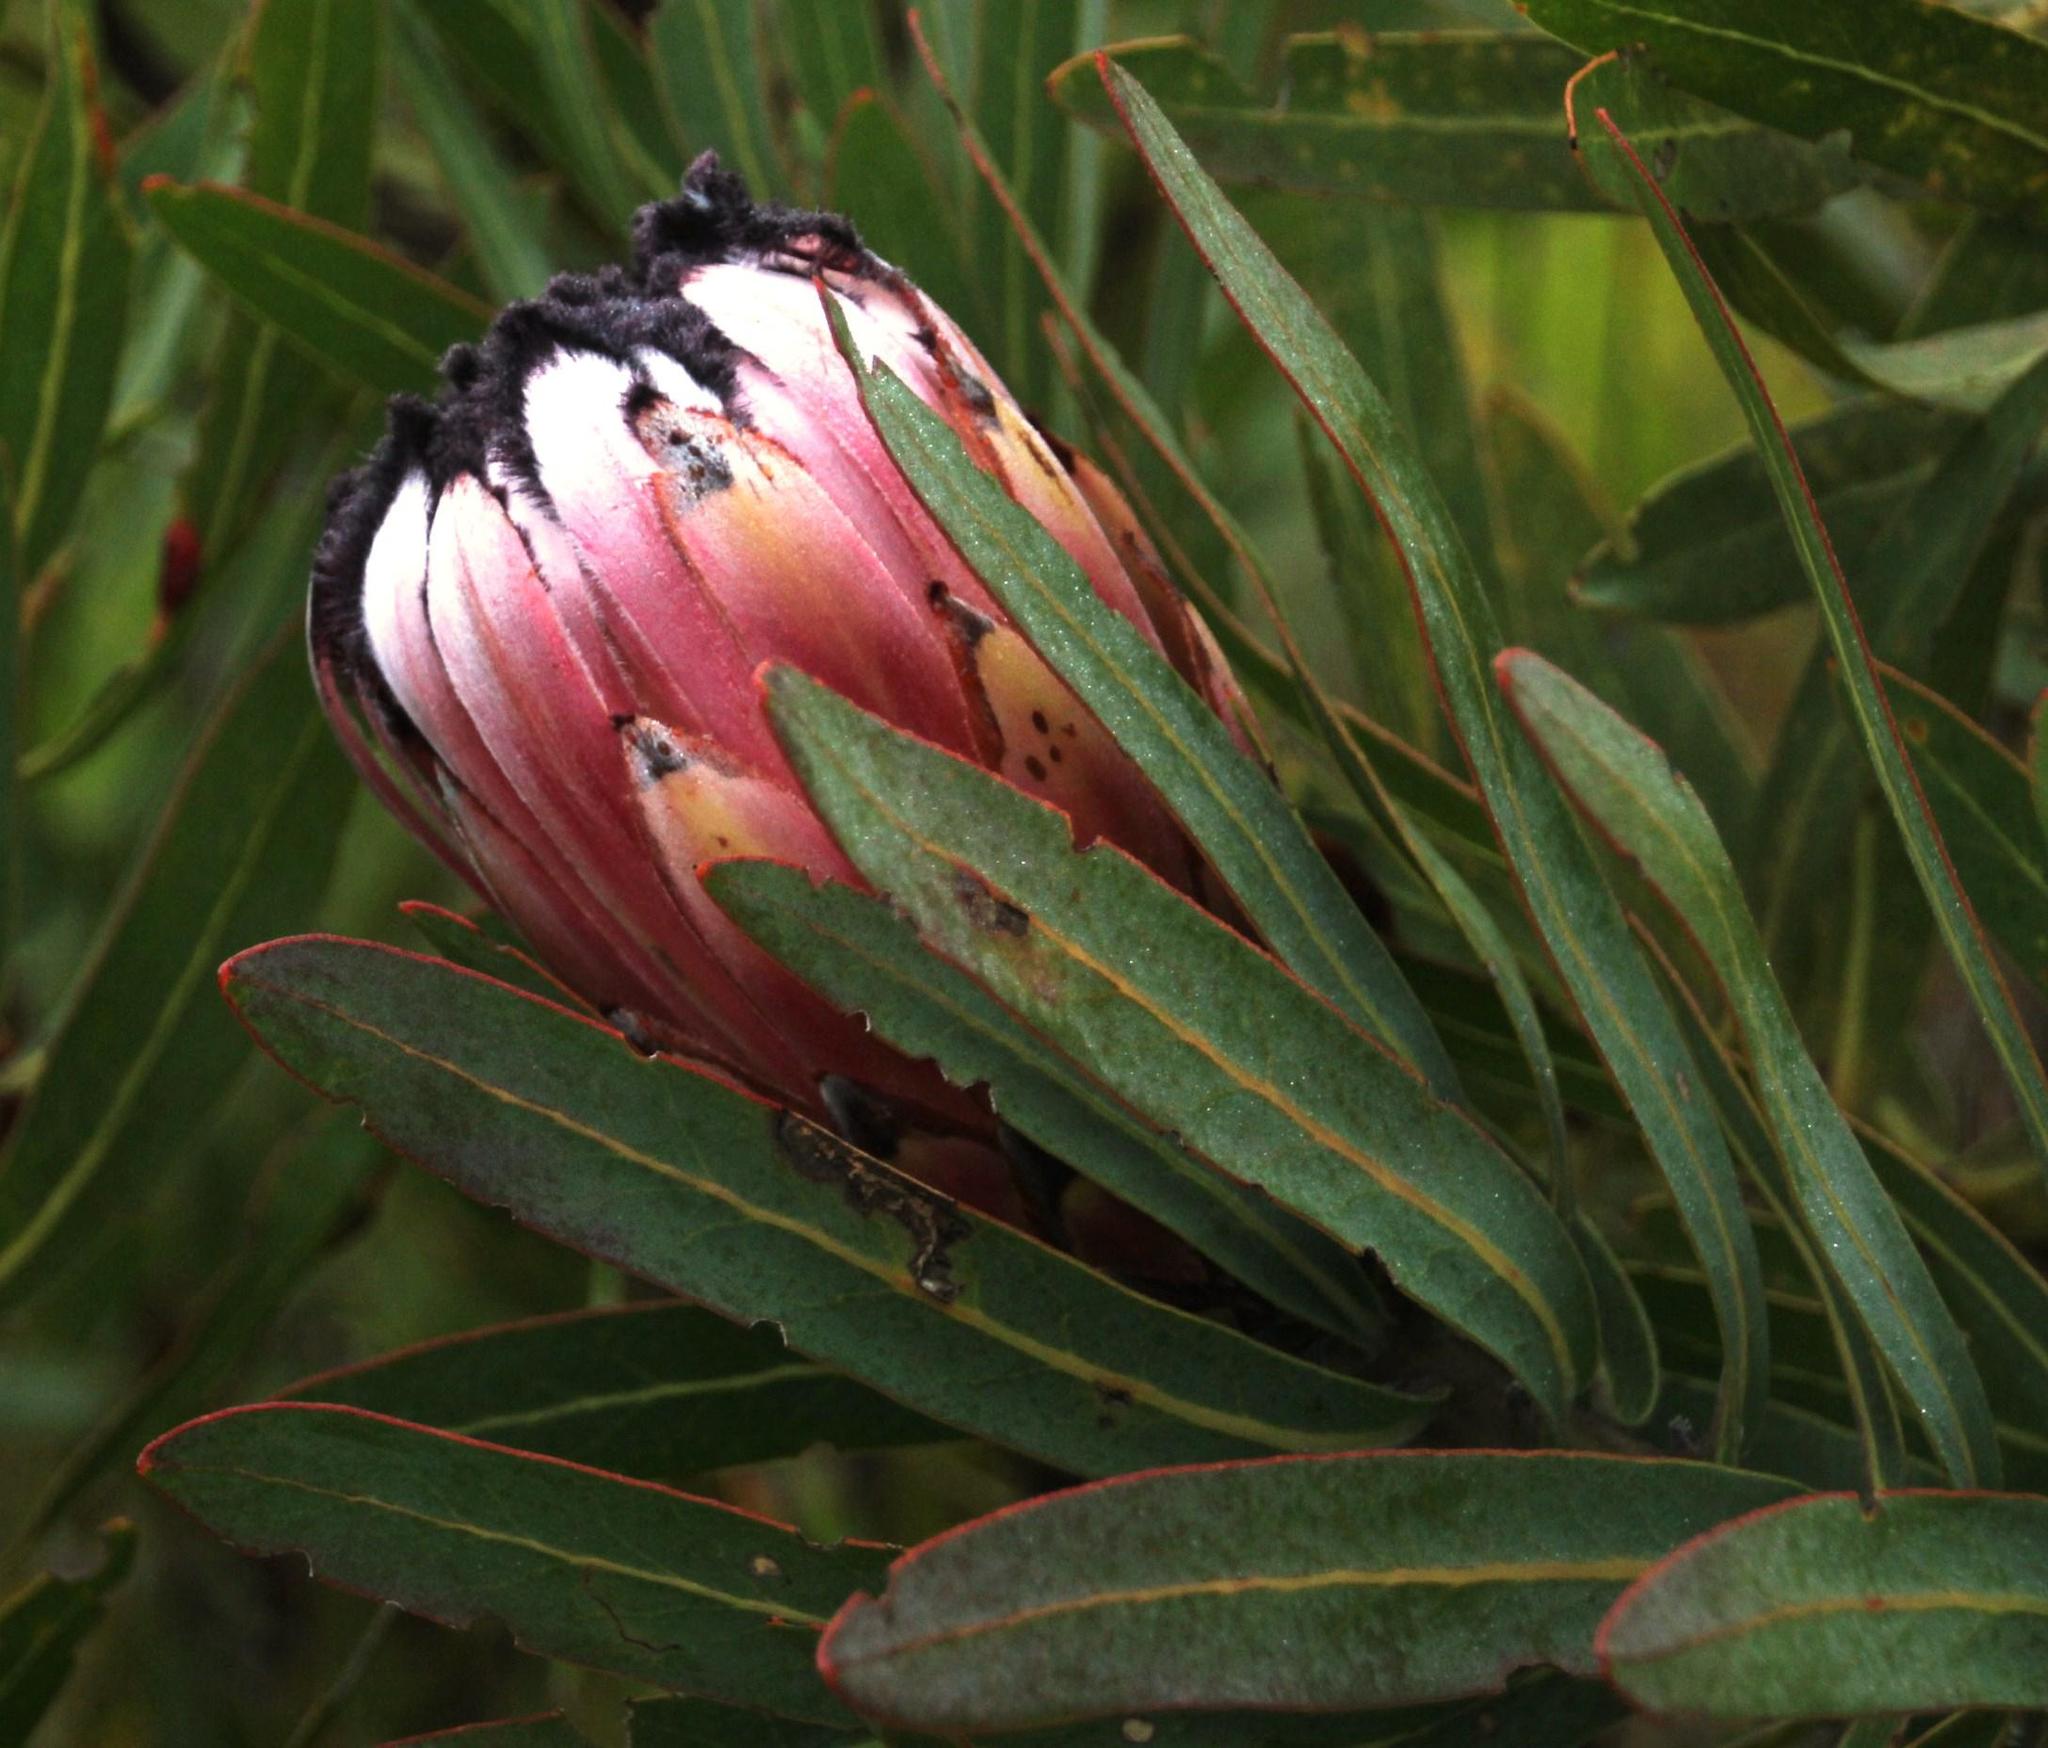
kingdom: Plantae
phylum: Tracheophyta
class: Magnoliopsida
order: Proteales
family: Proteaceae
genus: Protea
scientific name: Protea neriifolia
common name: Blue sugarbush
